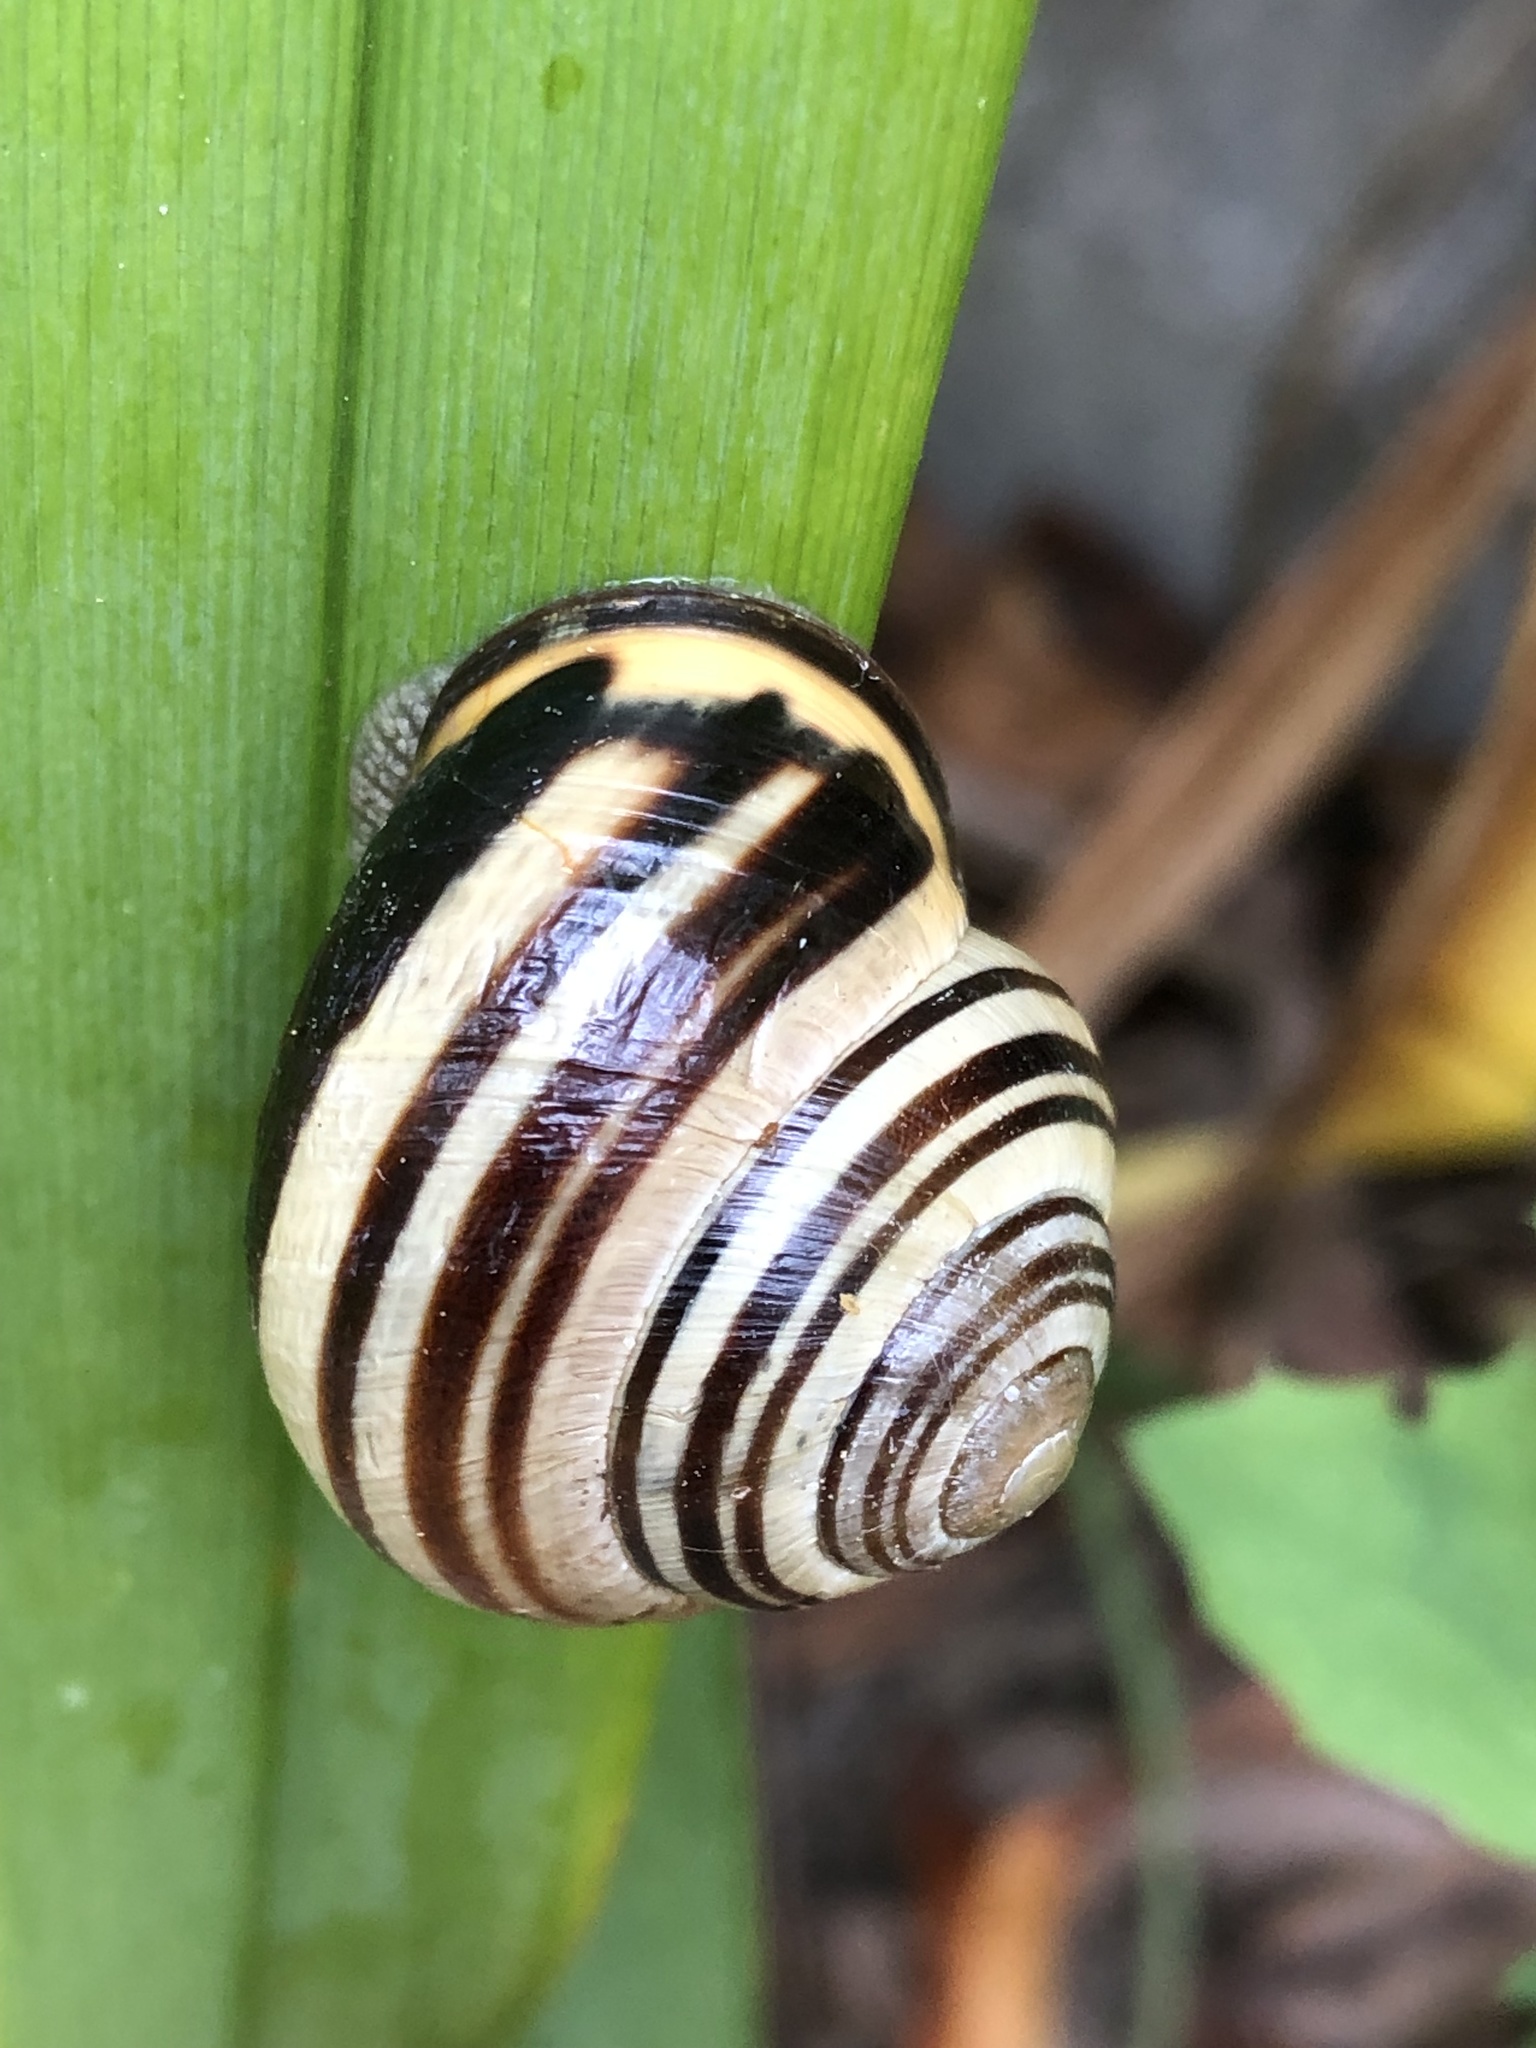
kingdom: Animalia
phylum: Mollusca
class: Gastropoda
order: Stylommatophora
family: Helicidae
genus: Cepaea
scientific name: Cepaea nemoralis
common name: Grovesnail
